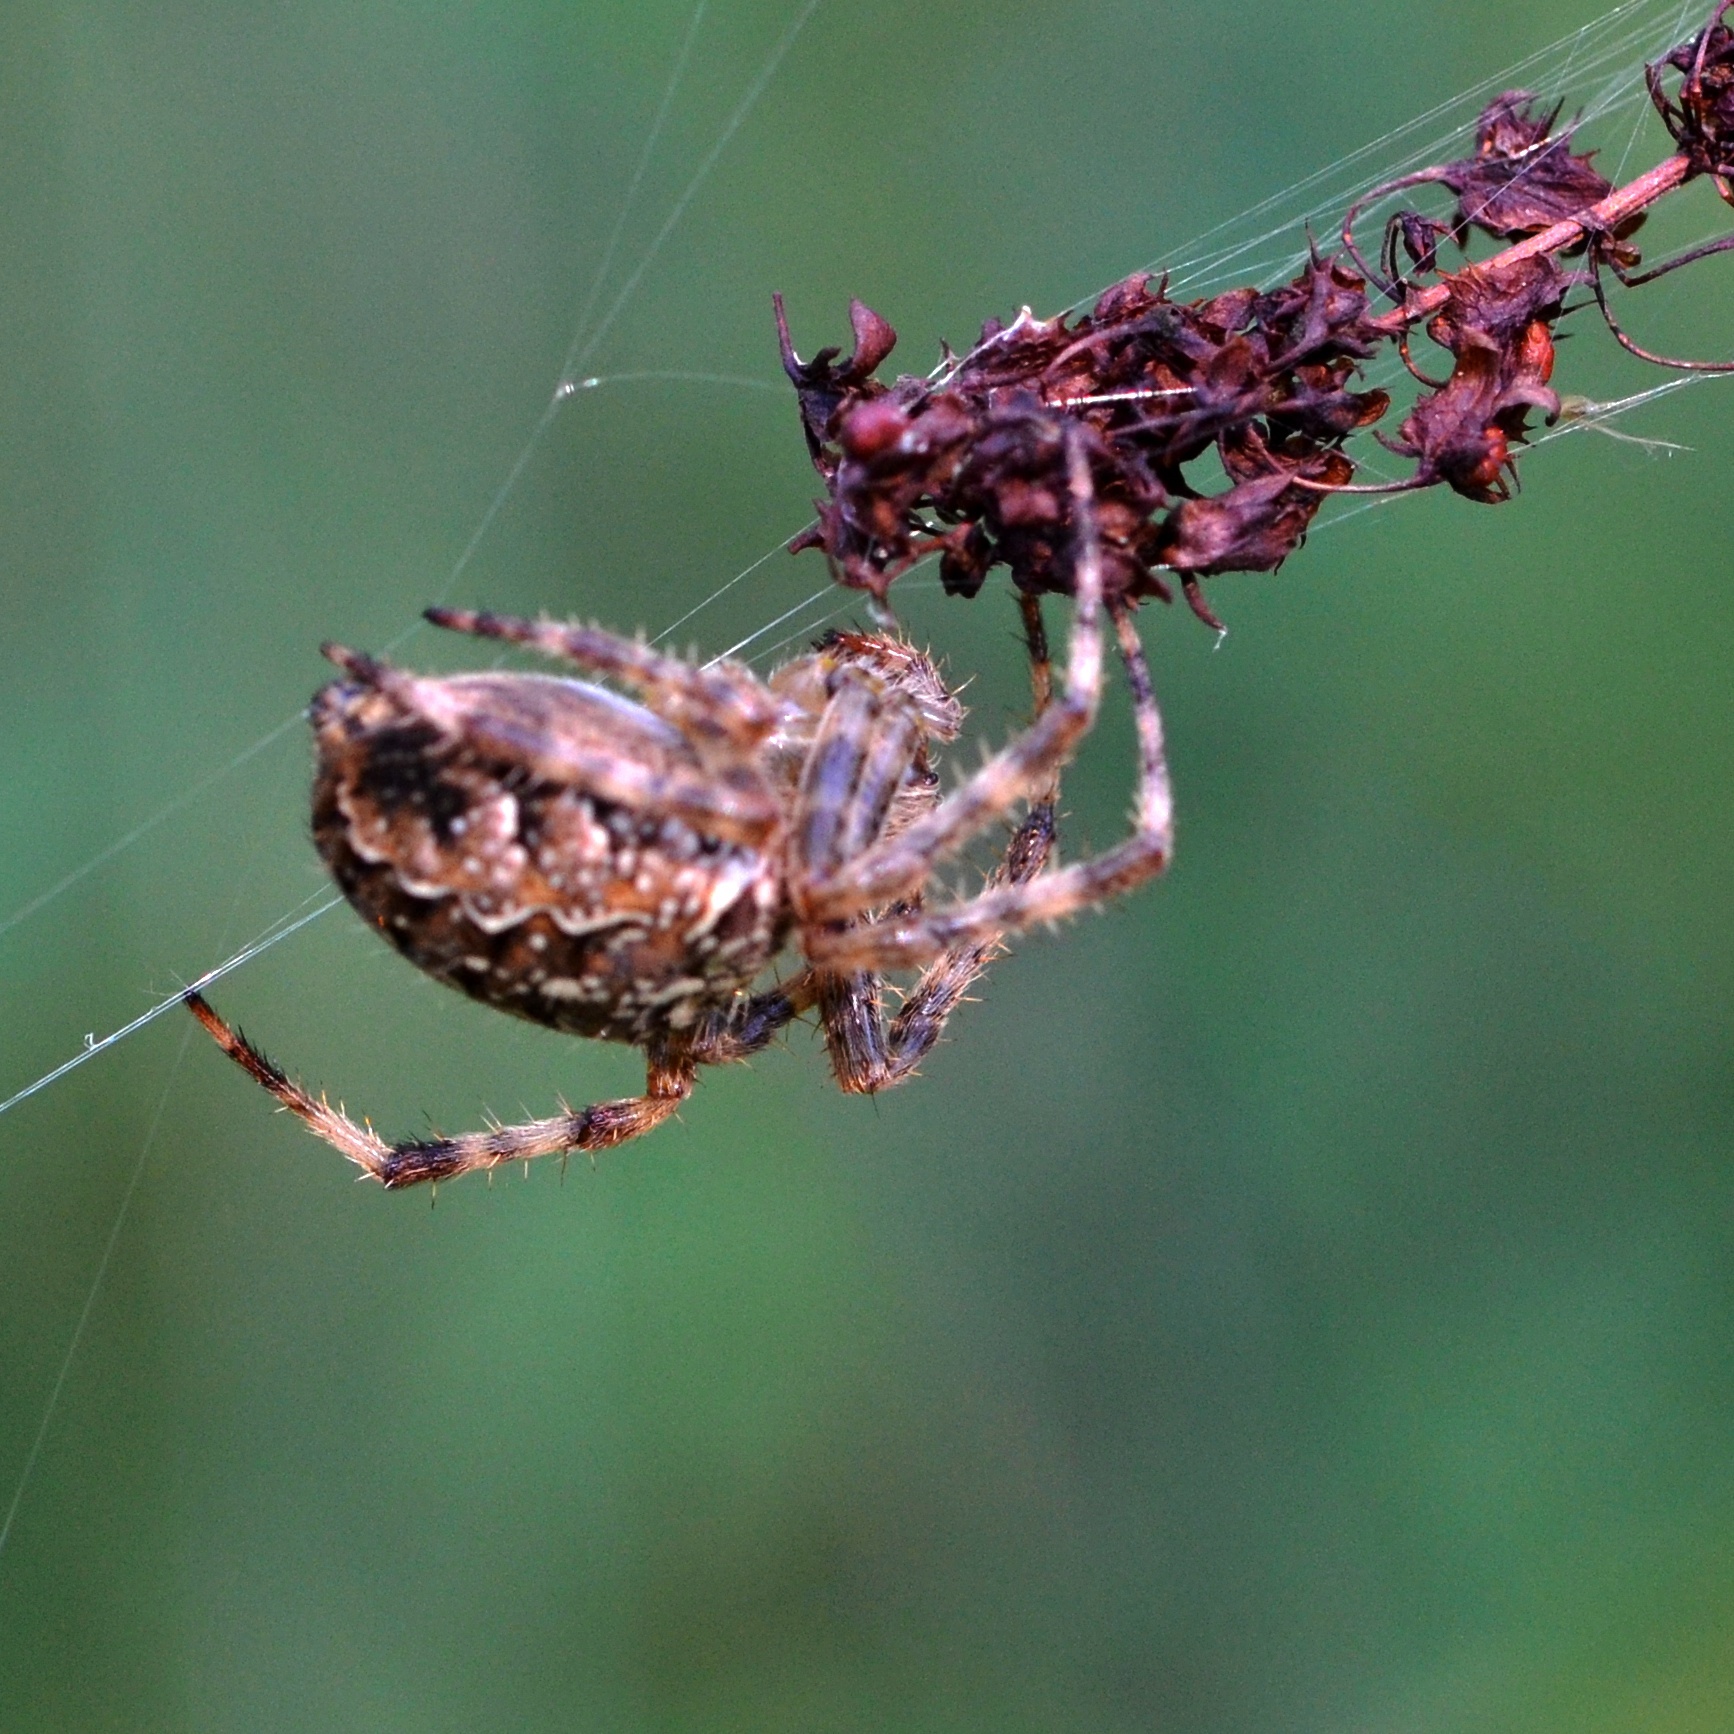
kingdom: Animalia
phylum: Arthropoda
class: Arachnida
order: Araneae
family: Araneidae
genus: Araneus
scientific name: Araneus diadematus
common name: Cross orbweaver
